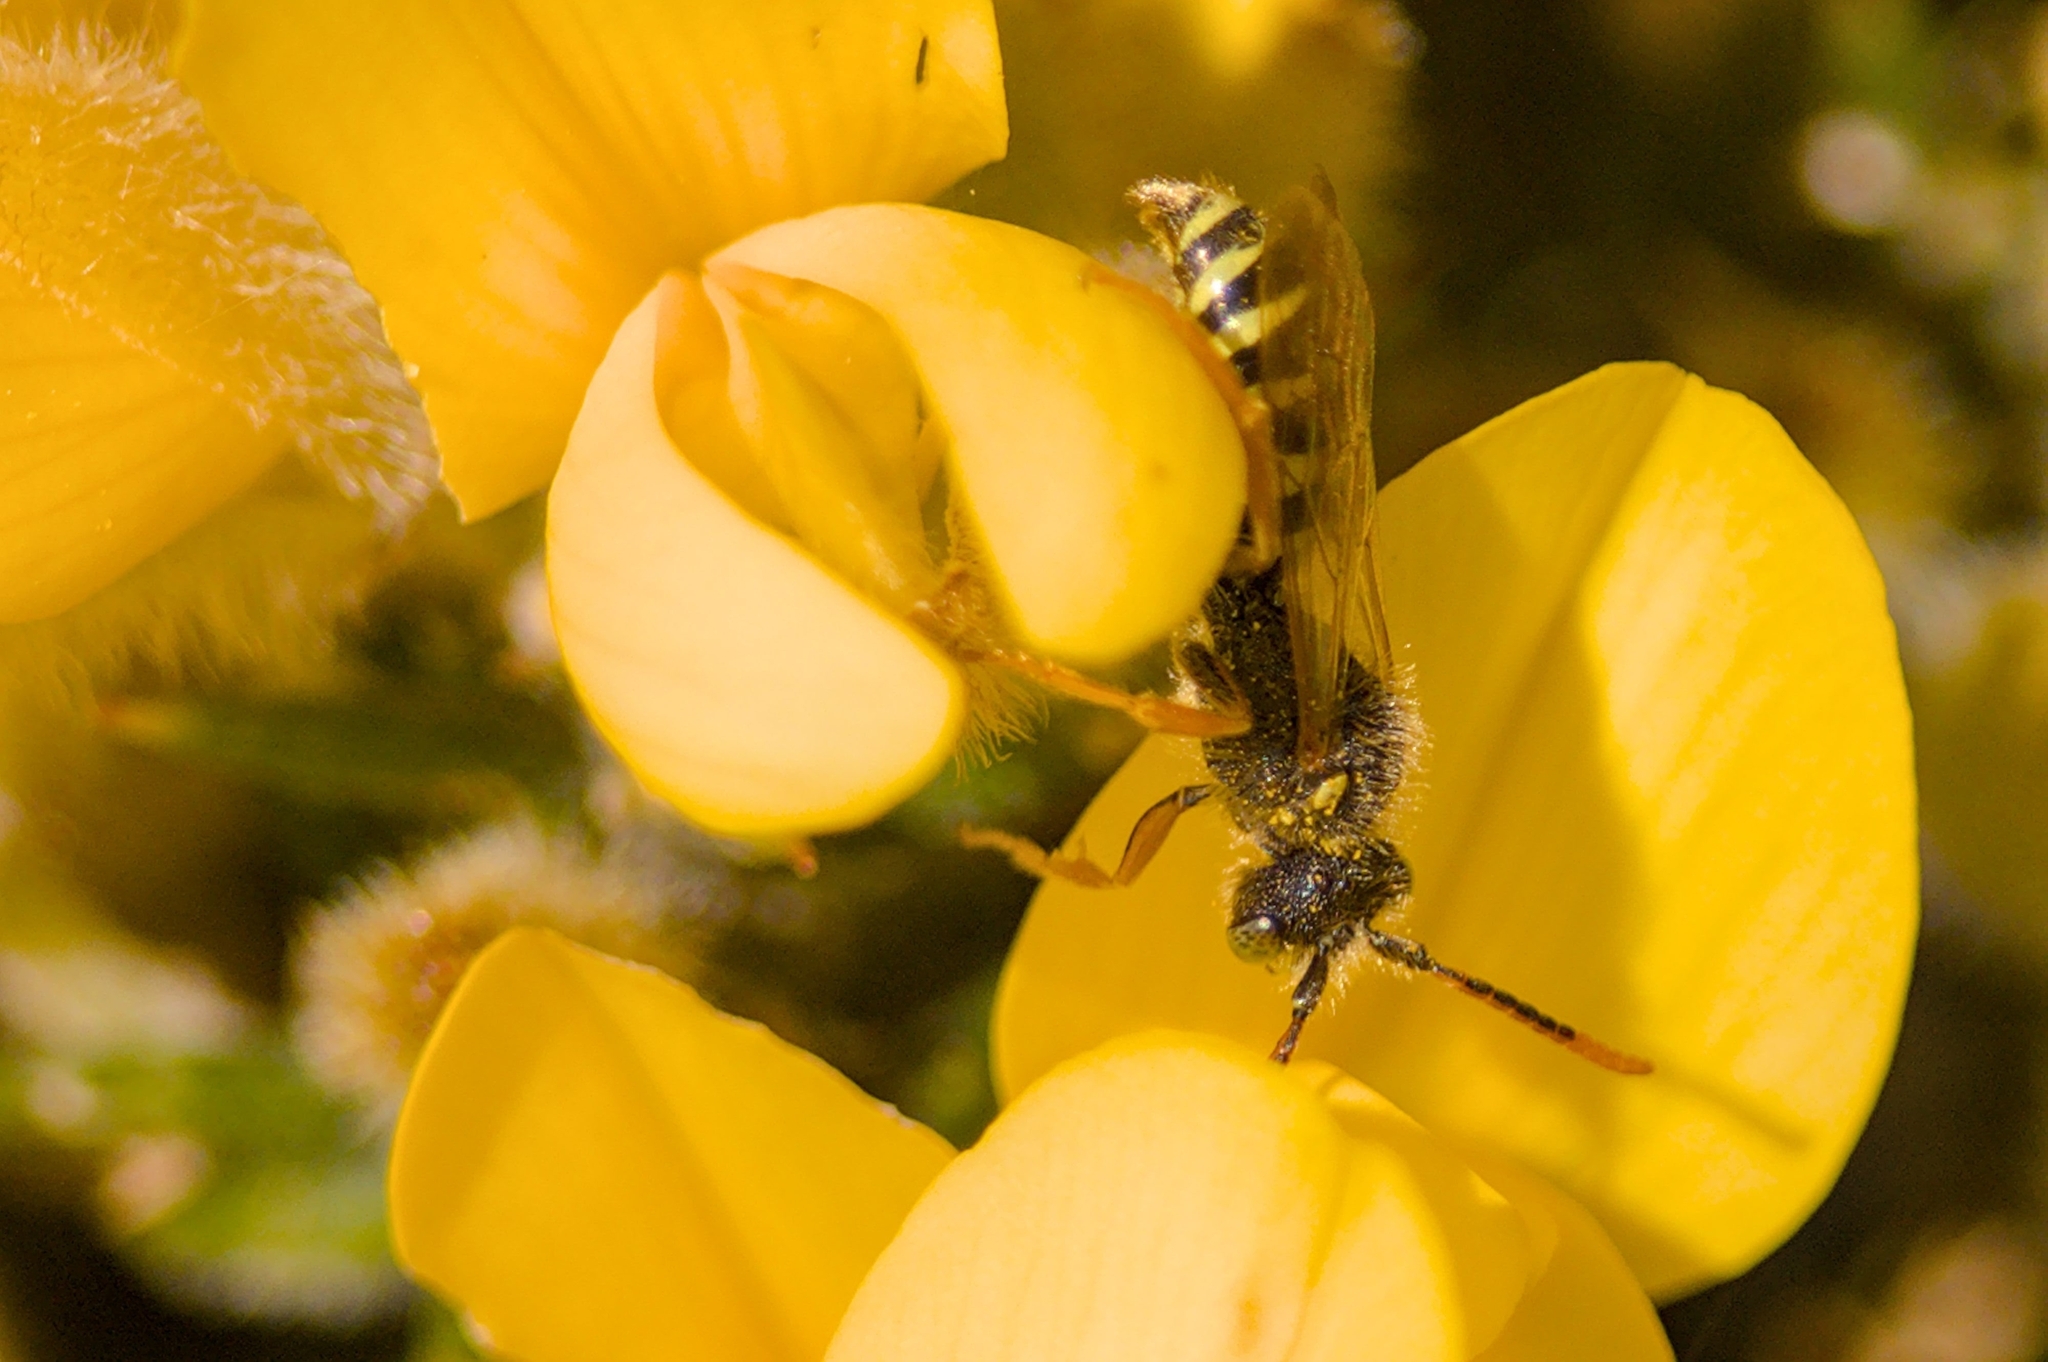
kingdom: Animalia
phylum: Arthropoda
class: Insecta
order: Hymenoptera
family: Apidae
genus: Nomada
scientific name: Nomada goodeniana
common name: Gooden's nomad bee
